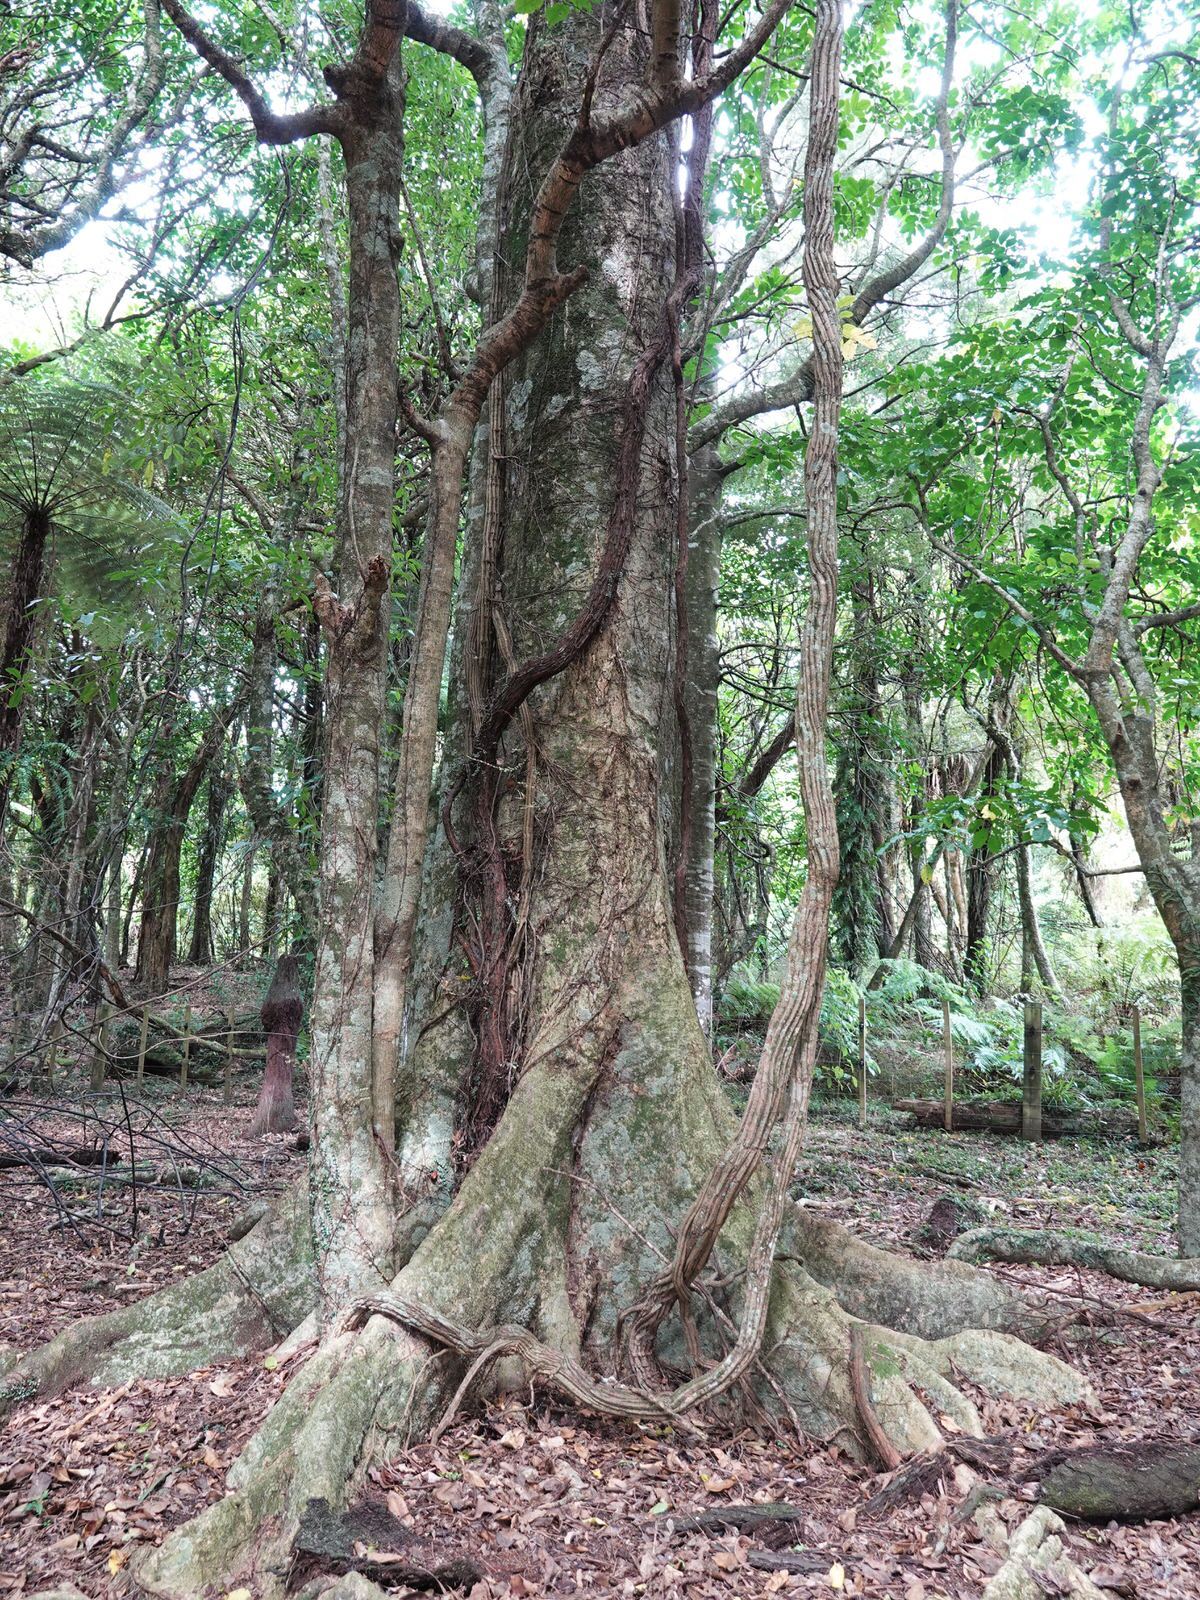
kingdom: Plantae
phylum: Tracheophyta
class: Magnoliopsida
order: Apiales
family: Griseliniaceae
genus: Griselinia
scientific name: Griselinia lucida
